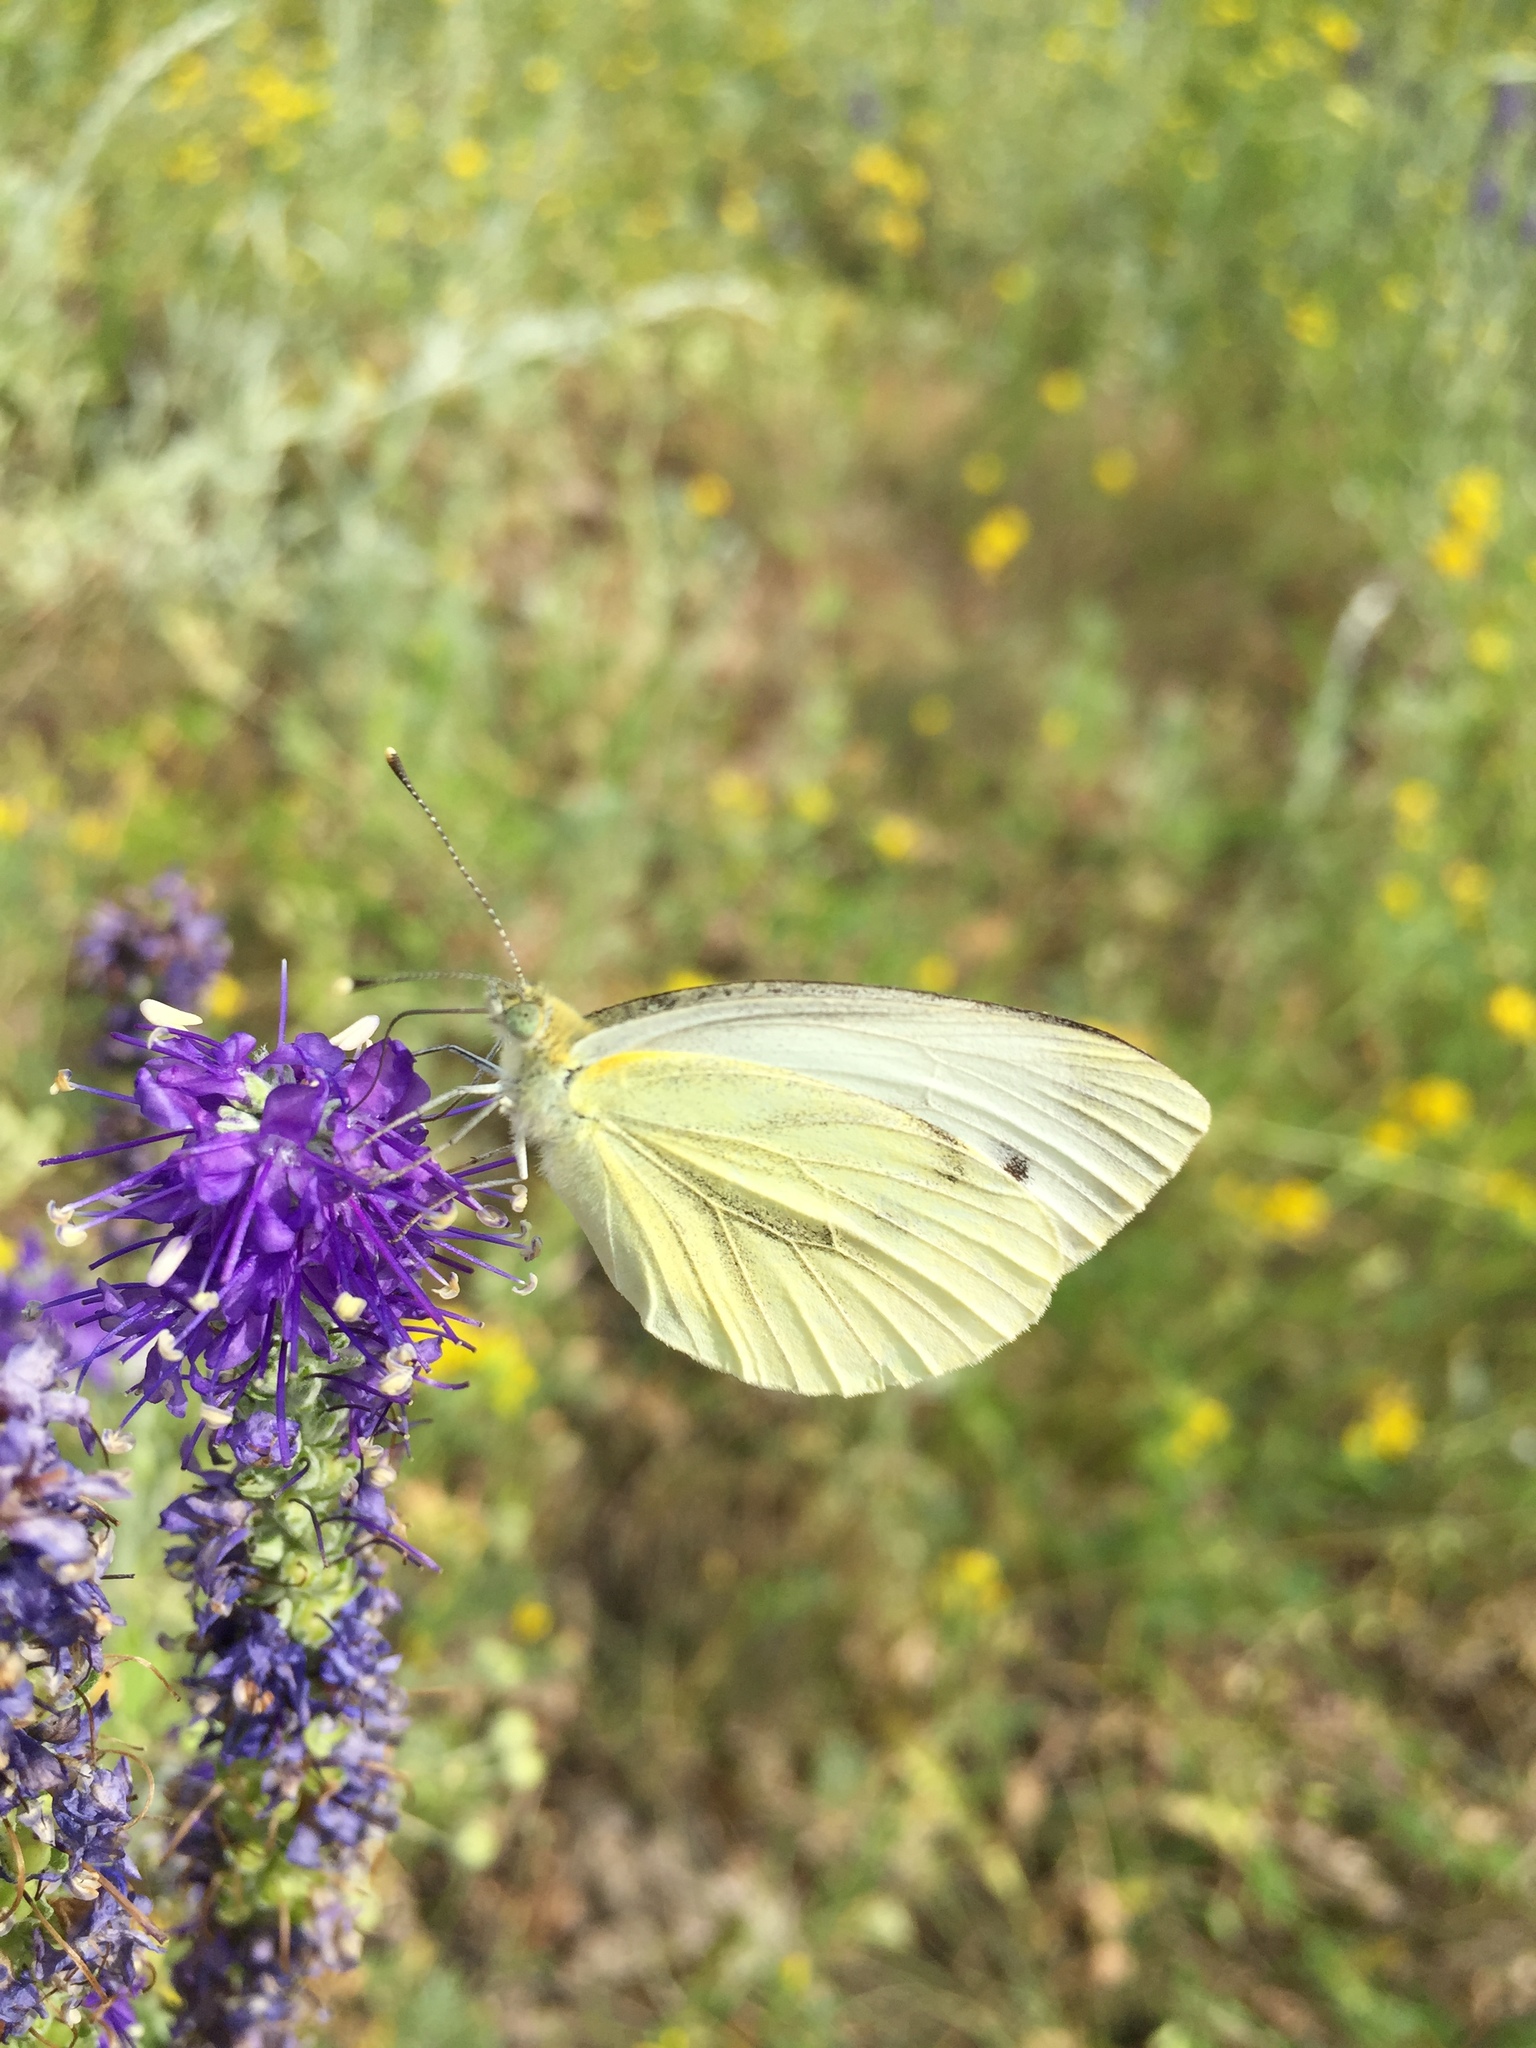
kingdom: Animalia
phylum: Arthropoda
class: Insecta
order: Lepidoptera
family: Pieridae
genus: Pieris
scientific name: Pieris napi
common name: Green-veined white
